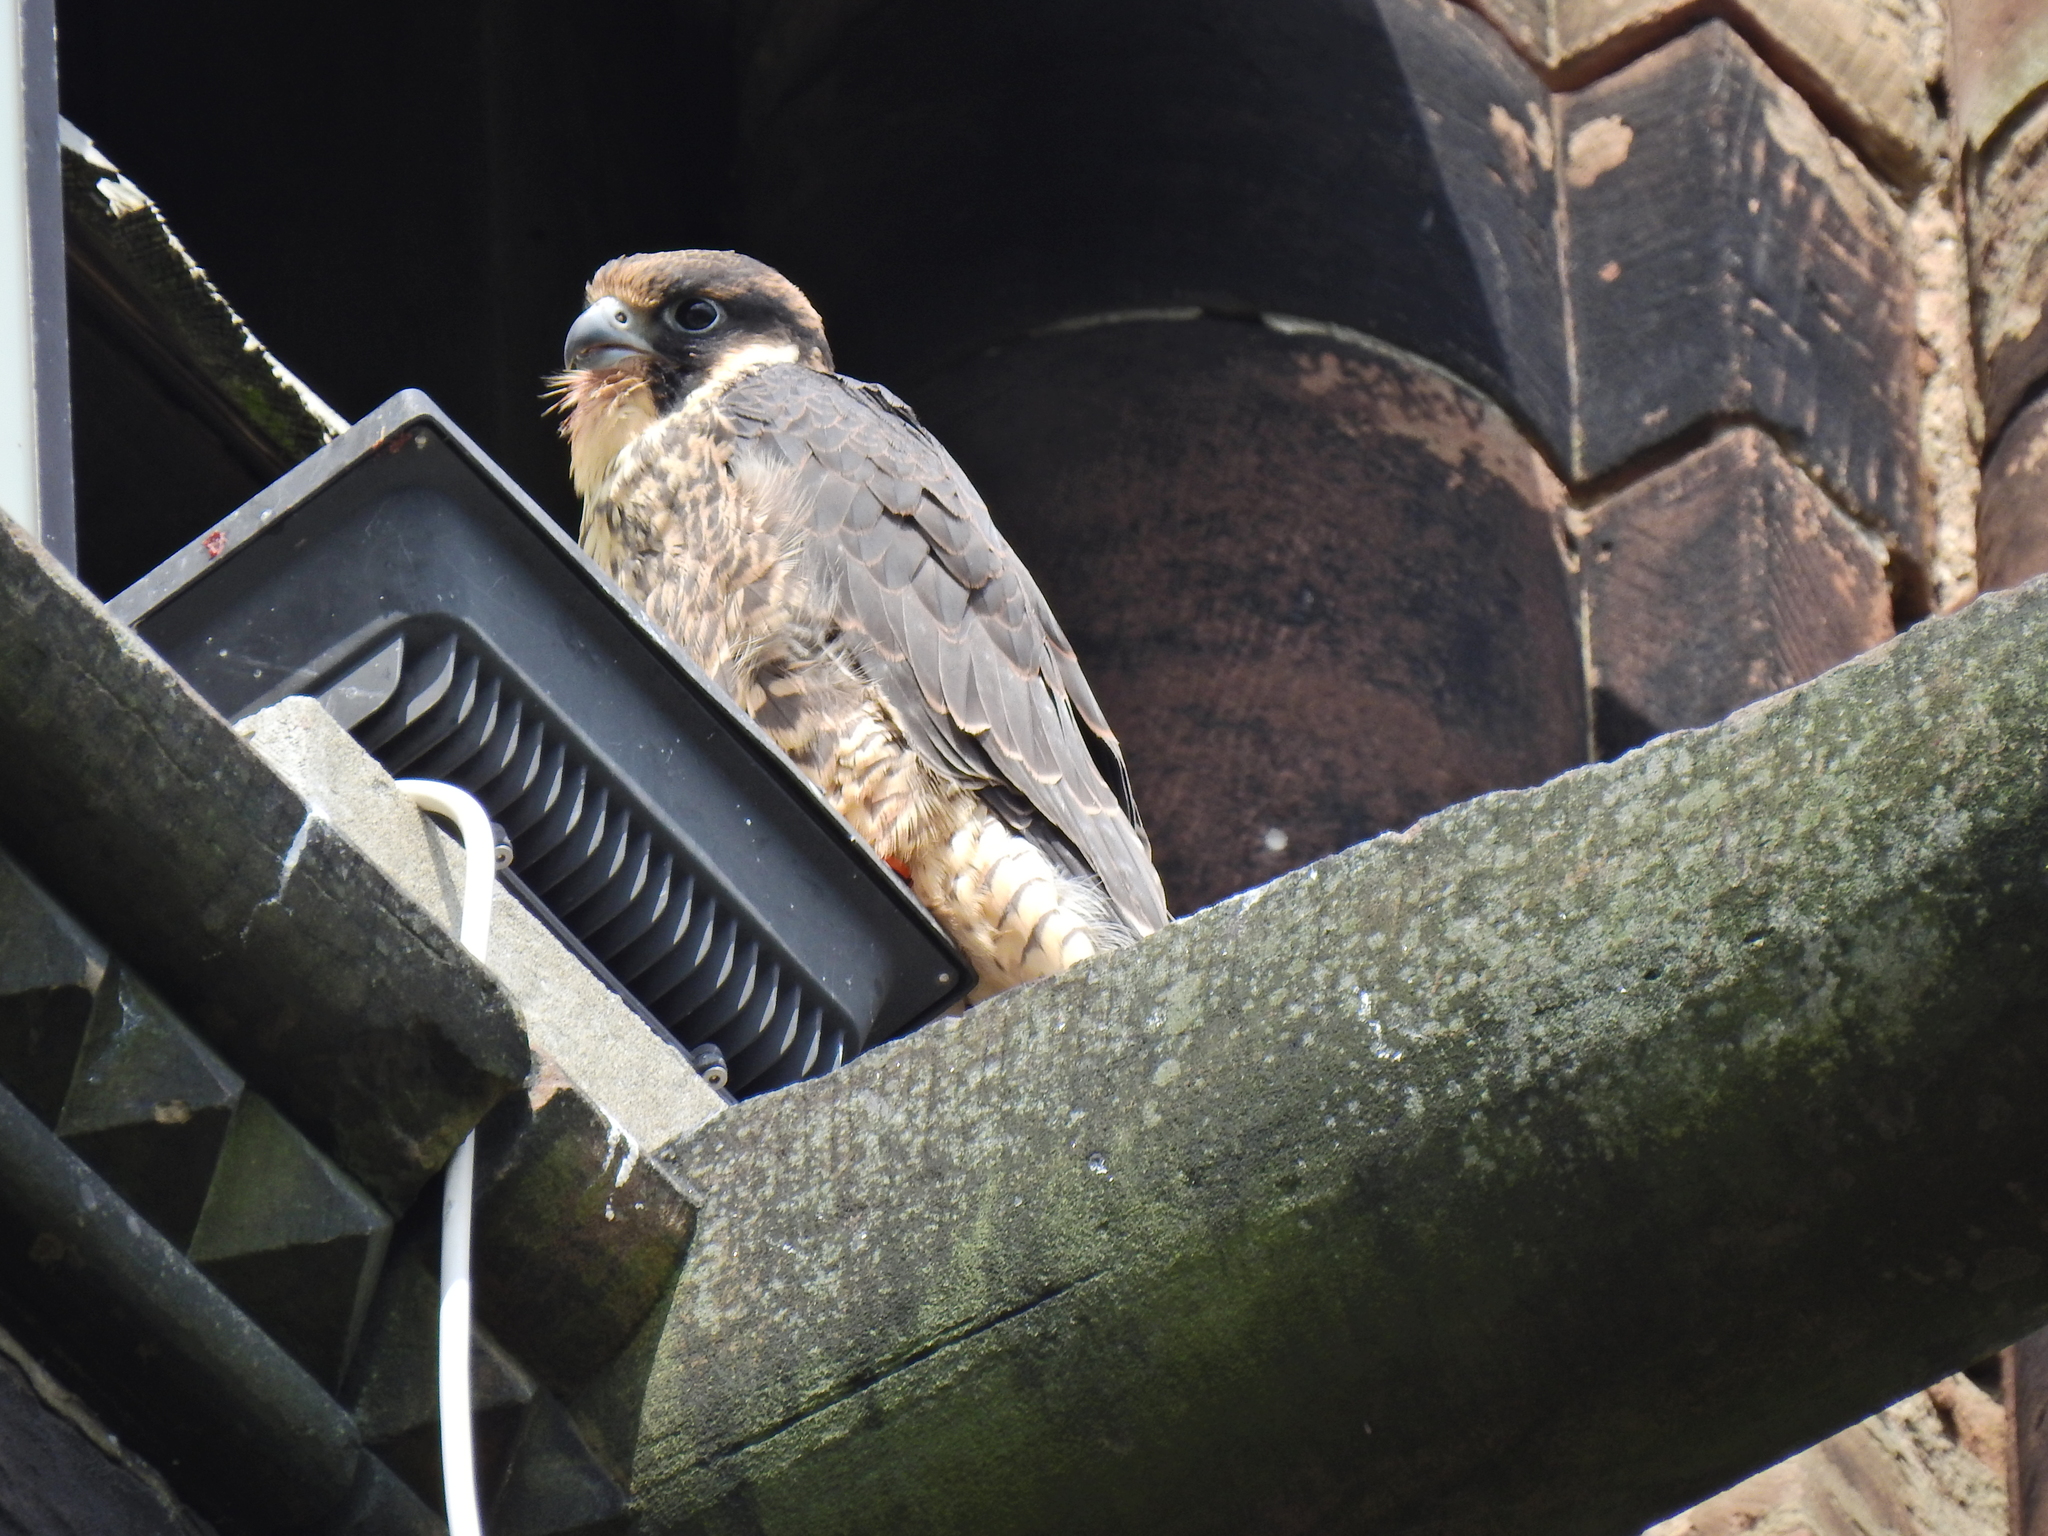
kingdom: Animalia
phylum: Chordata
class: Aves
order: Falconiformes
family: Falconidae
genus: Falco
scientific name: Falco peregrinus
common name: Peregrine falcon
